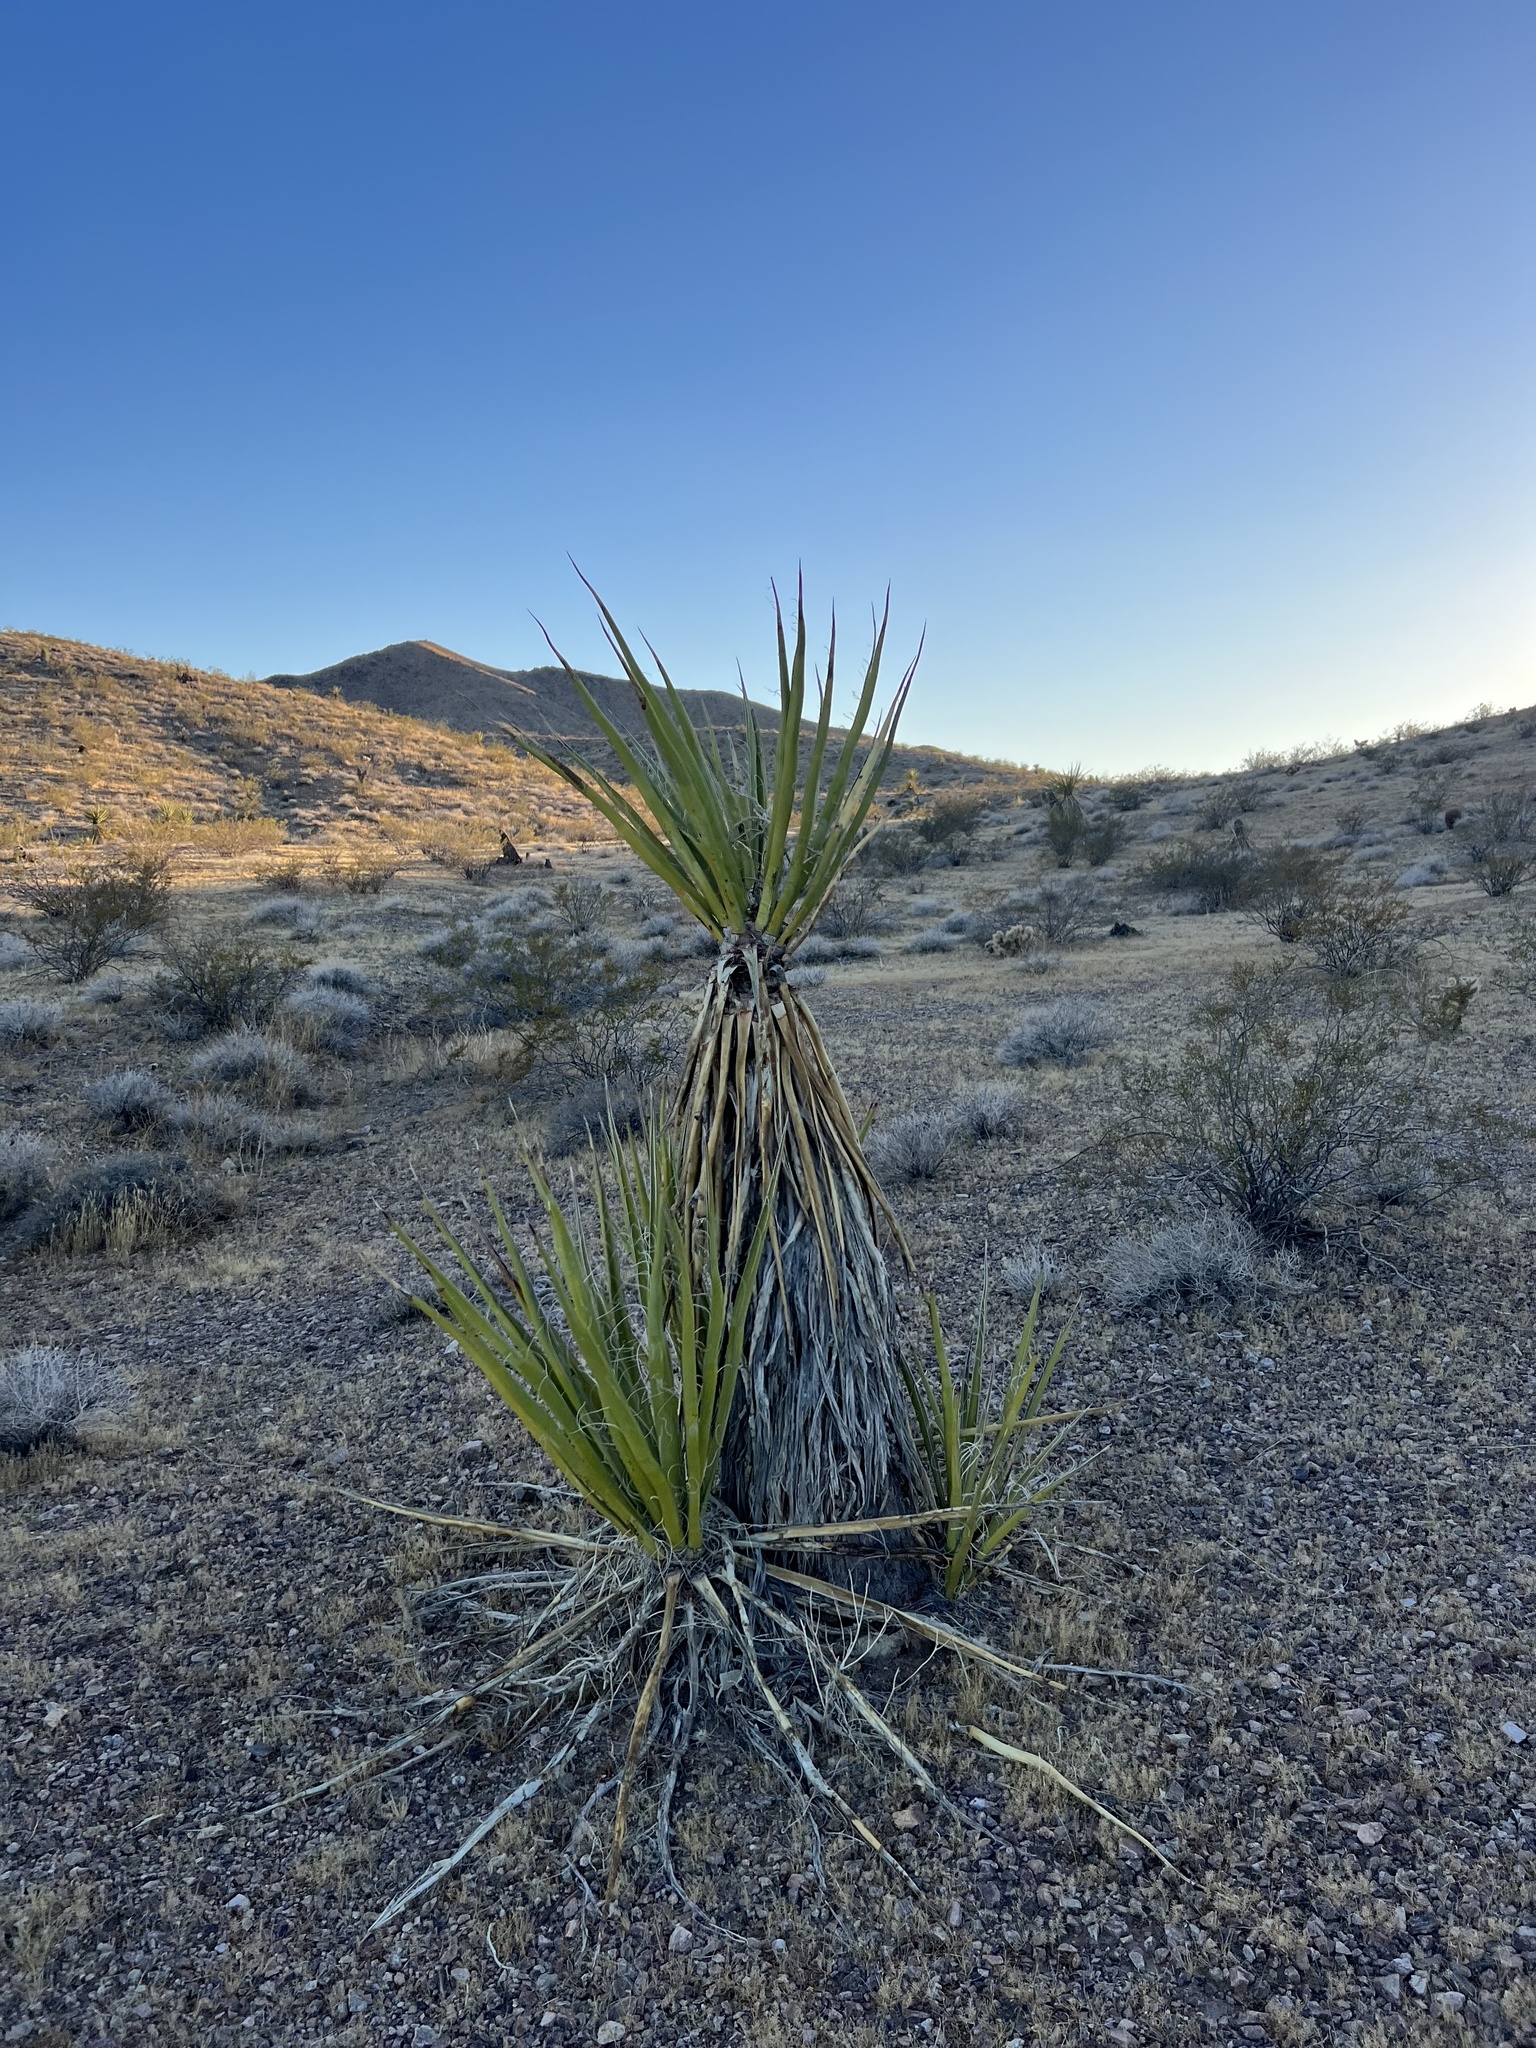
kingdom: Plantae
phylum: Tracheophyta
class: Liliopsida
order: Asparagales
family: Asparagaceae
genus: Yucca
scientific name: Yucca schidigera
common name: Mojave yucca
